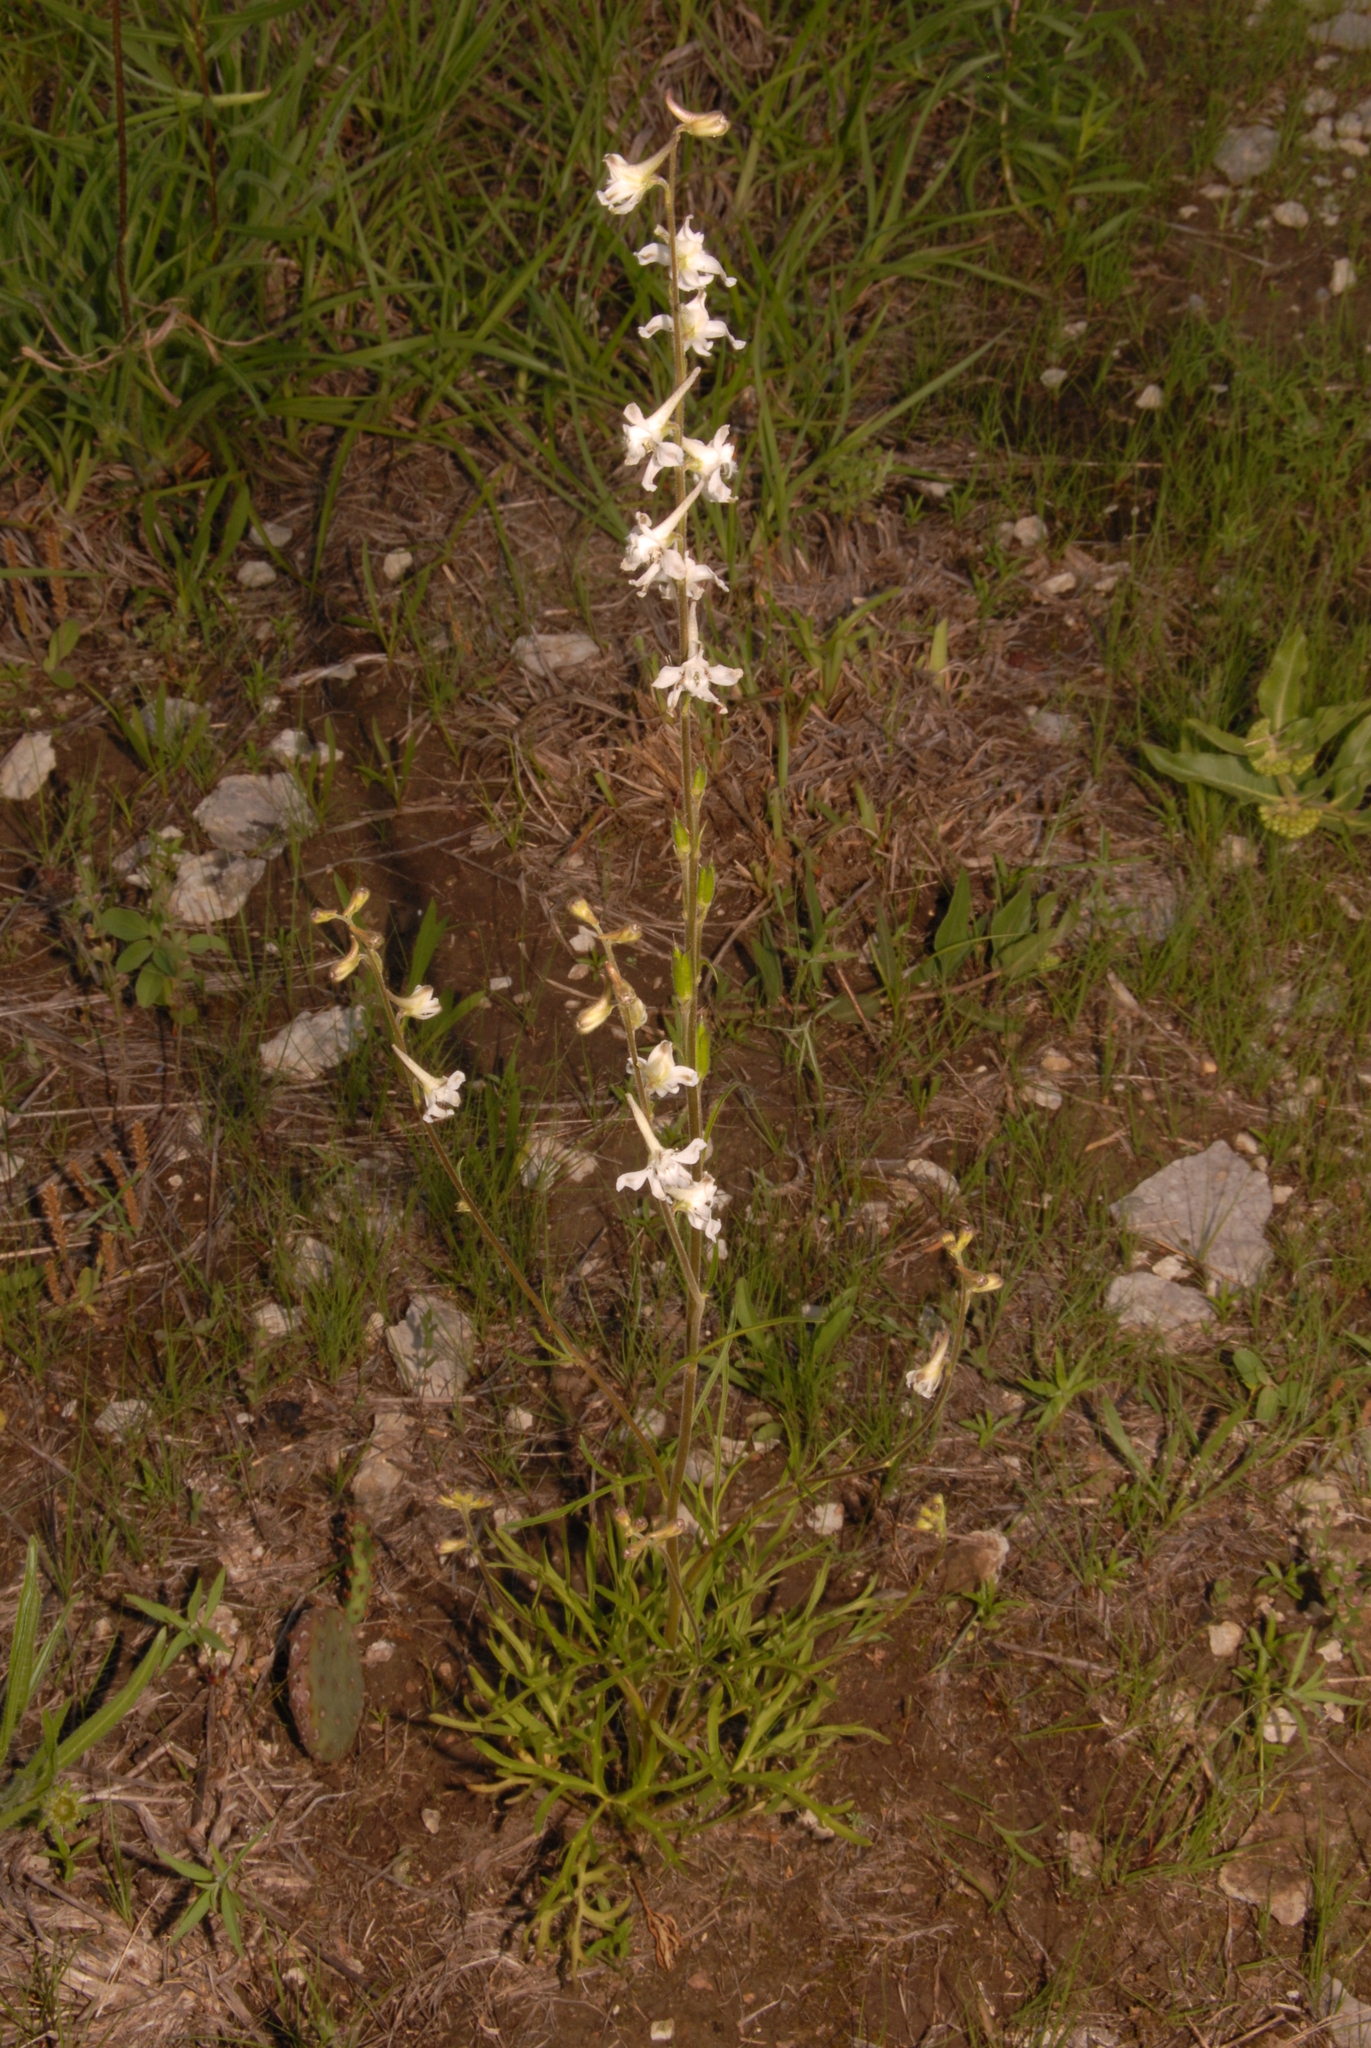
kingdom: Plantae
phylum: Tracheophyta
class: Magnoliopsida
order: Ranunculales
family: Ranunculaceae
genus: Delphinium
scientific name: Delphinium carolinianum
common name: Carolina larkspur
